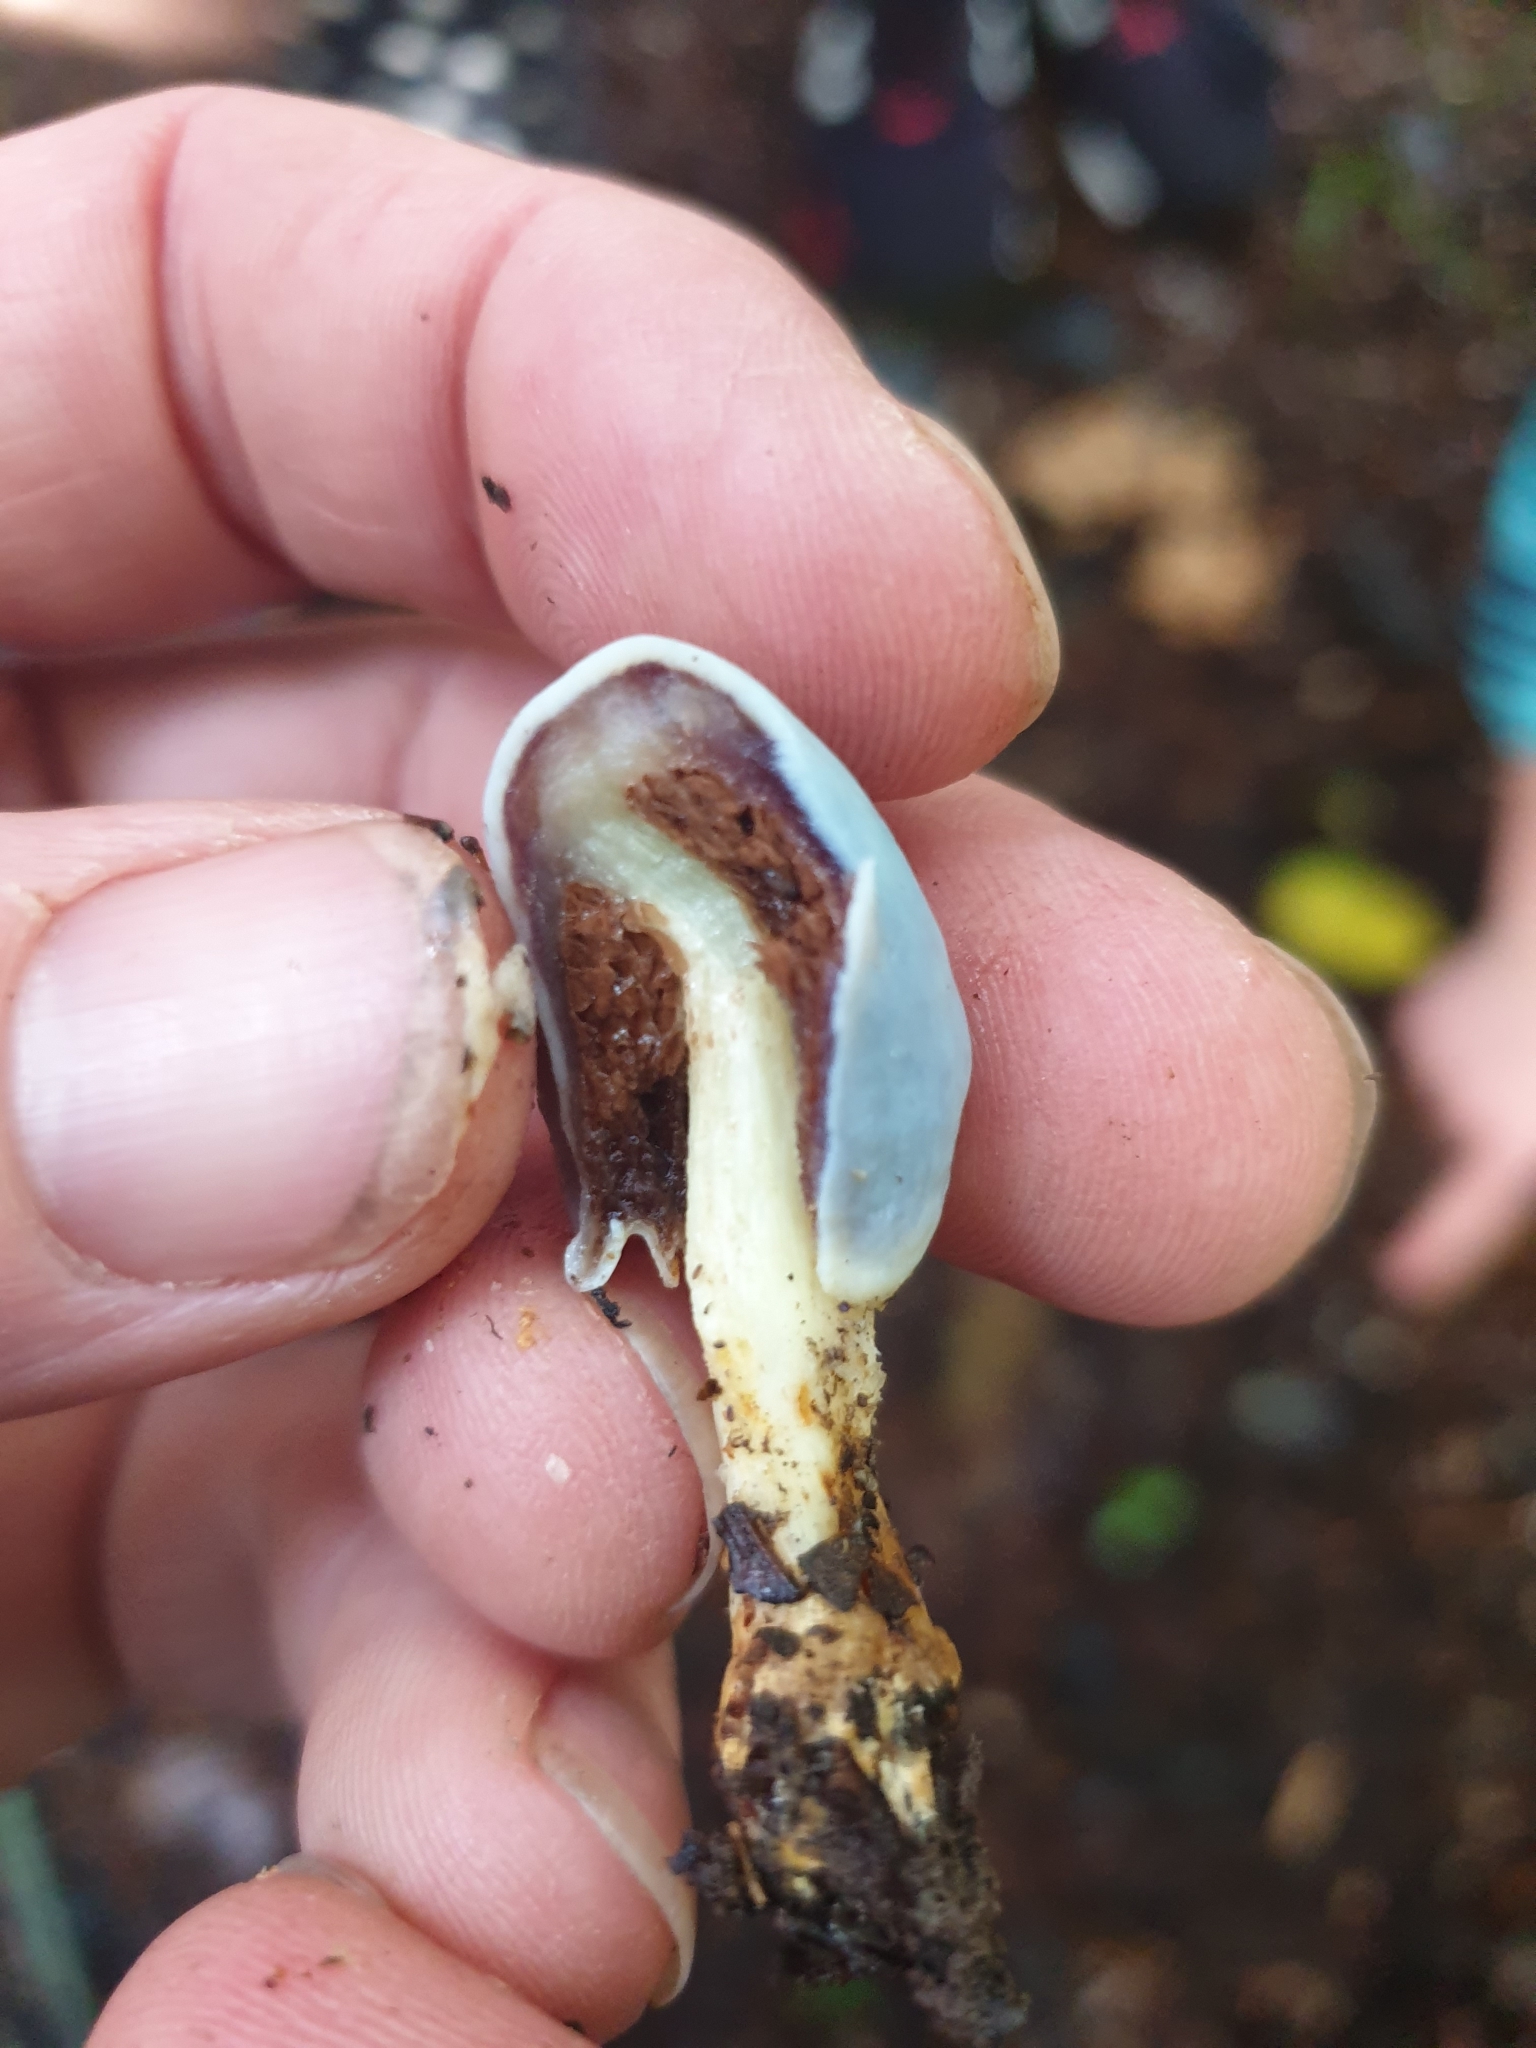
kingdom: Fungi
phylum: Basidiomycota
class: Agaricomycetes
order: Agaricales
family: Agaricaceae
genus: Clavogaster
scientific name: Clavogaster virescens
